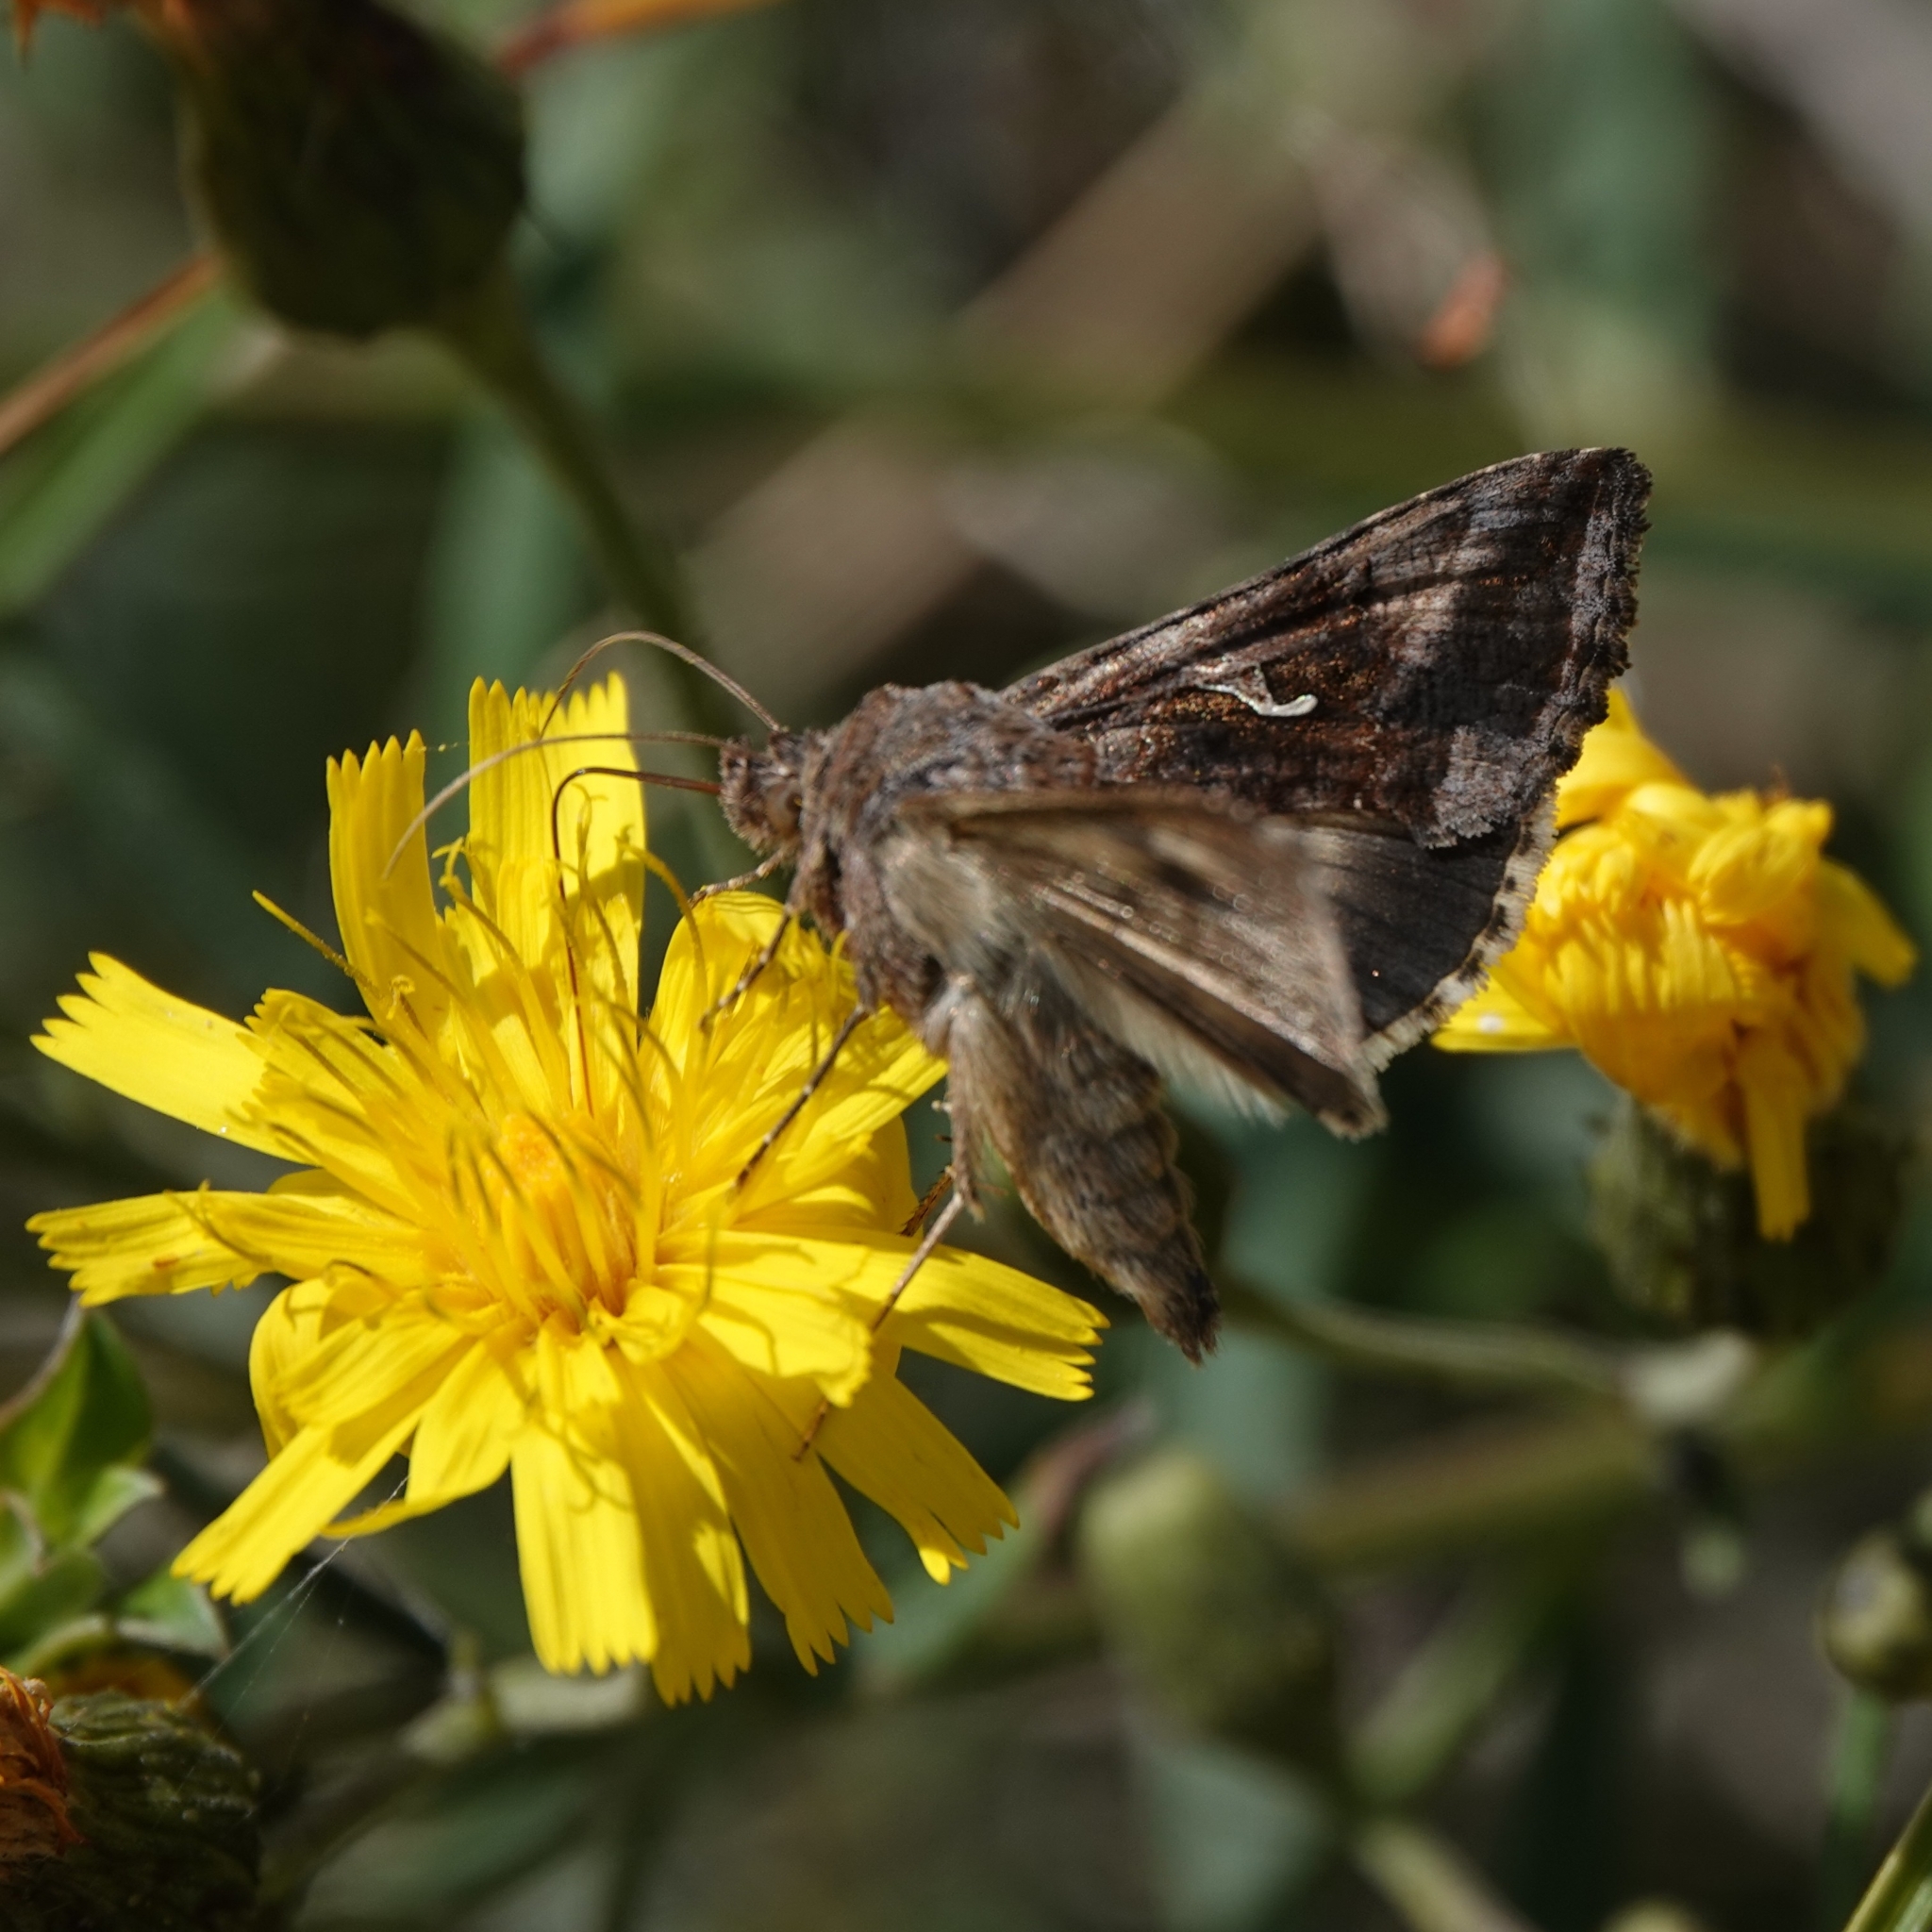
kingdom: Animalia
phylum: Arthropoda
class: Insecta
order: Lepidoptera
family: Noctuidae
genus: Autographa
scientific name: Autographa gamma
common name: Silver y
